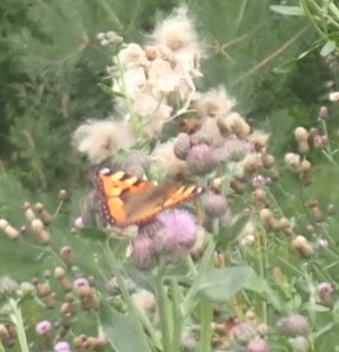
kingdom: Animalia
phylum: Arthropoda
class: Insecta
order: Lepidoptera
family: Nymphalidae
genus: Aglais
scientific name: Aglais urticae
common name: Small tortoiseshell
